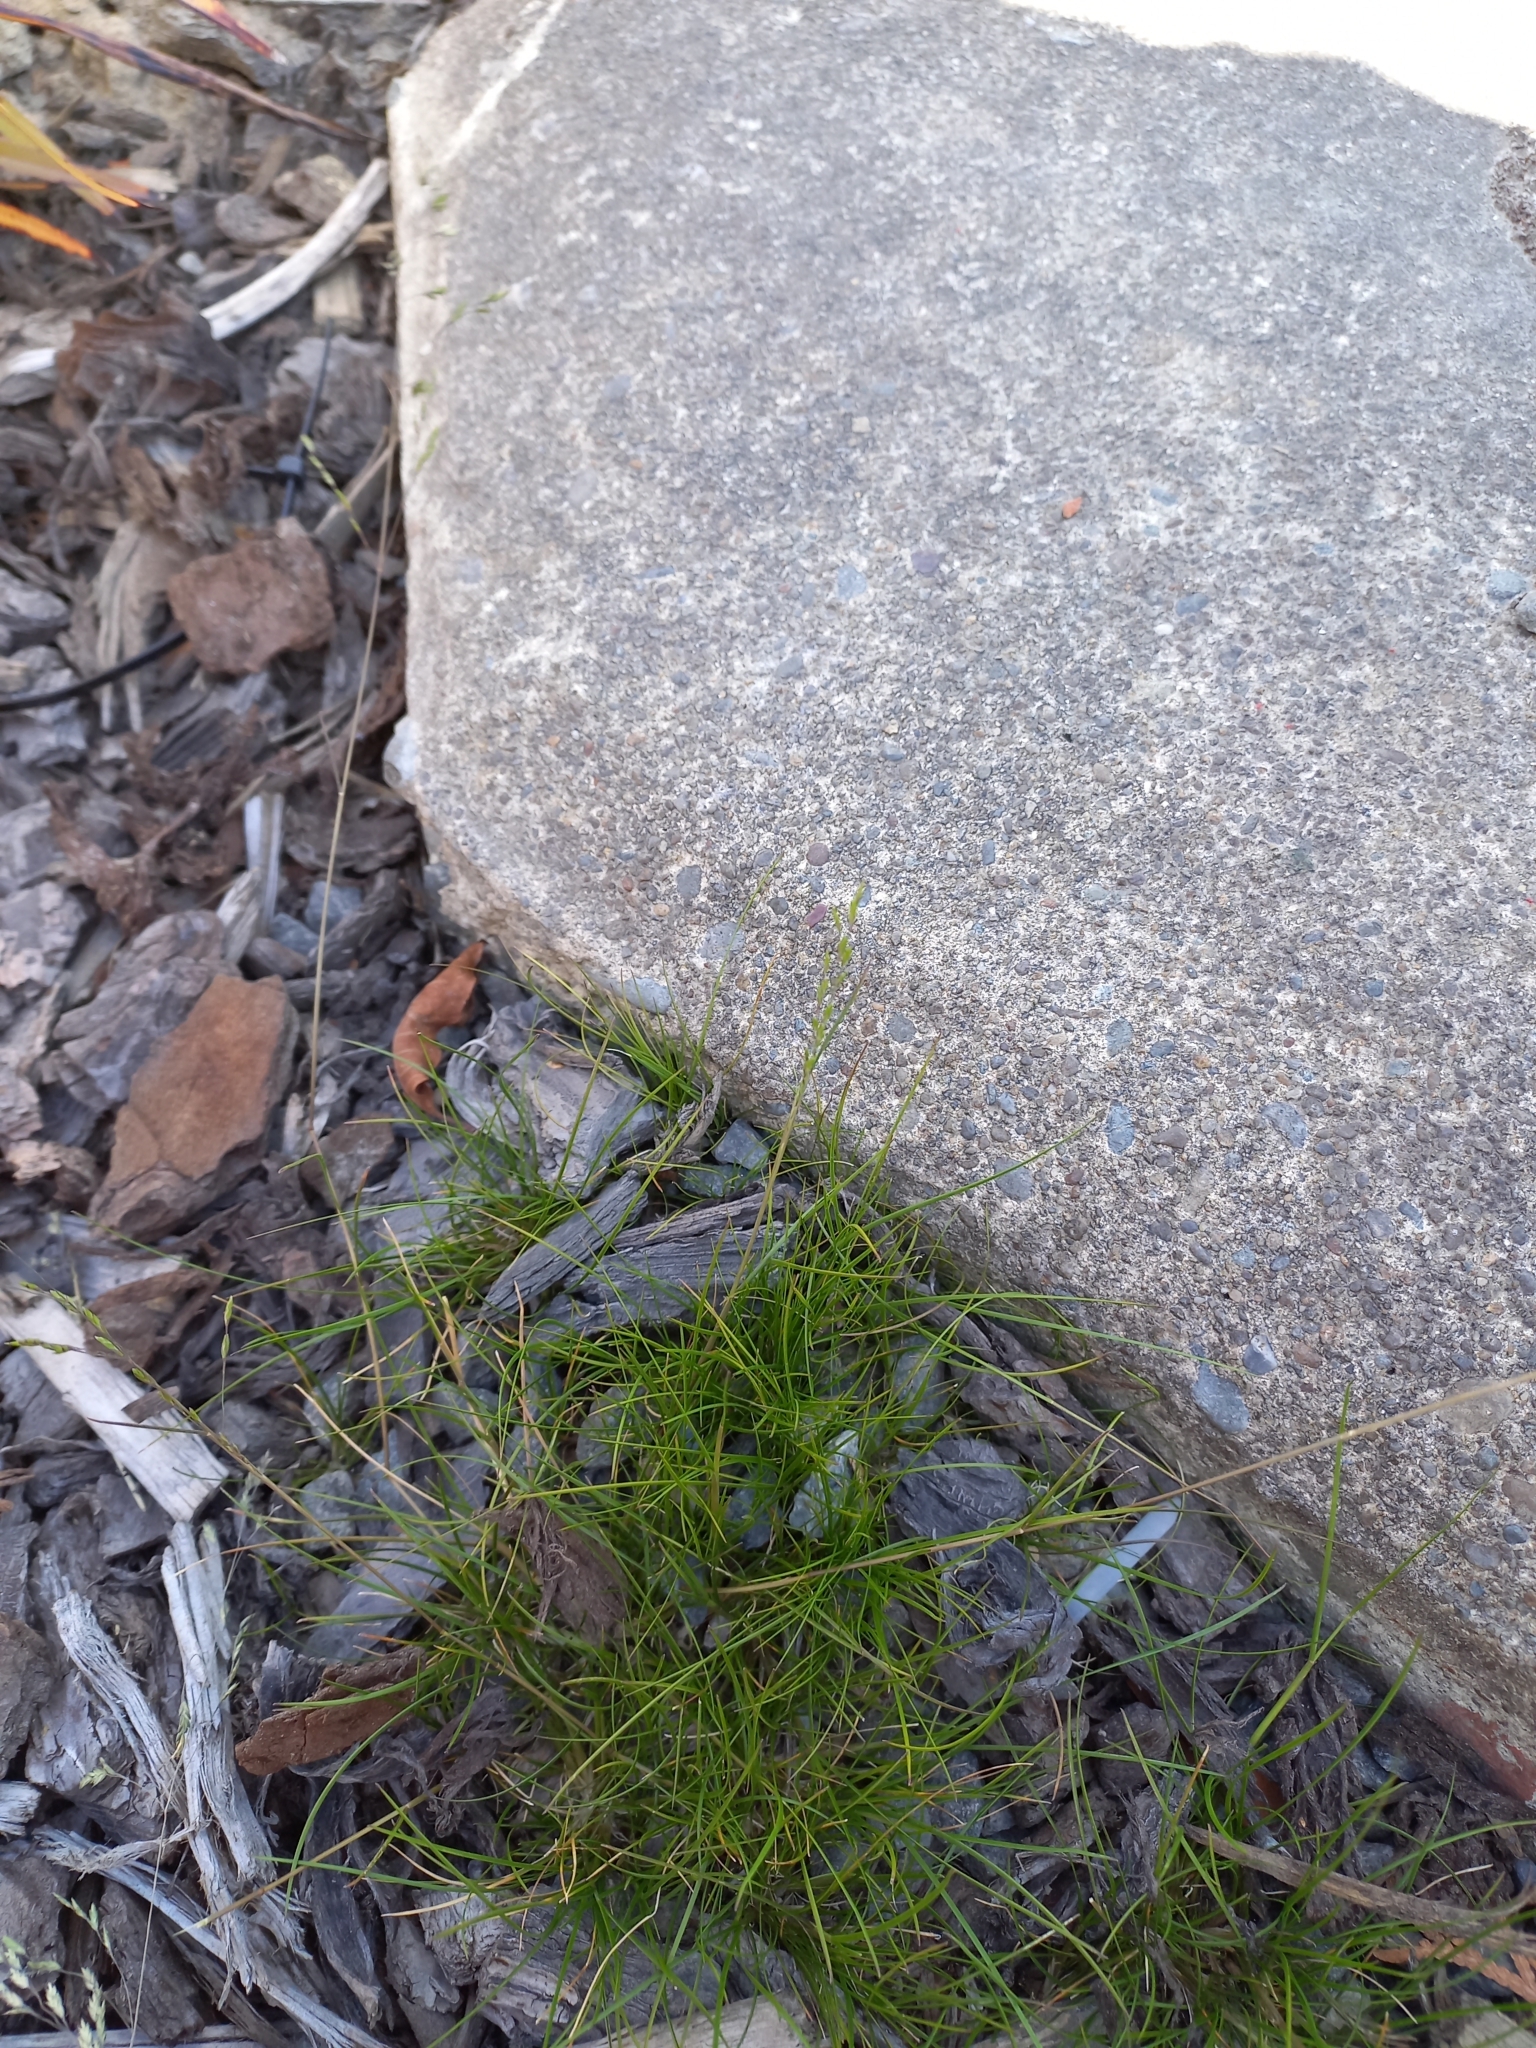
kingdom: Plantae
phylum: Tracheophyta
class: Liliopsida
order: Poales
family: Poaceae
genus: Poa
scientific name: Poa imbecilla
